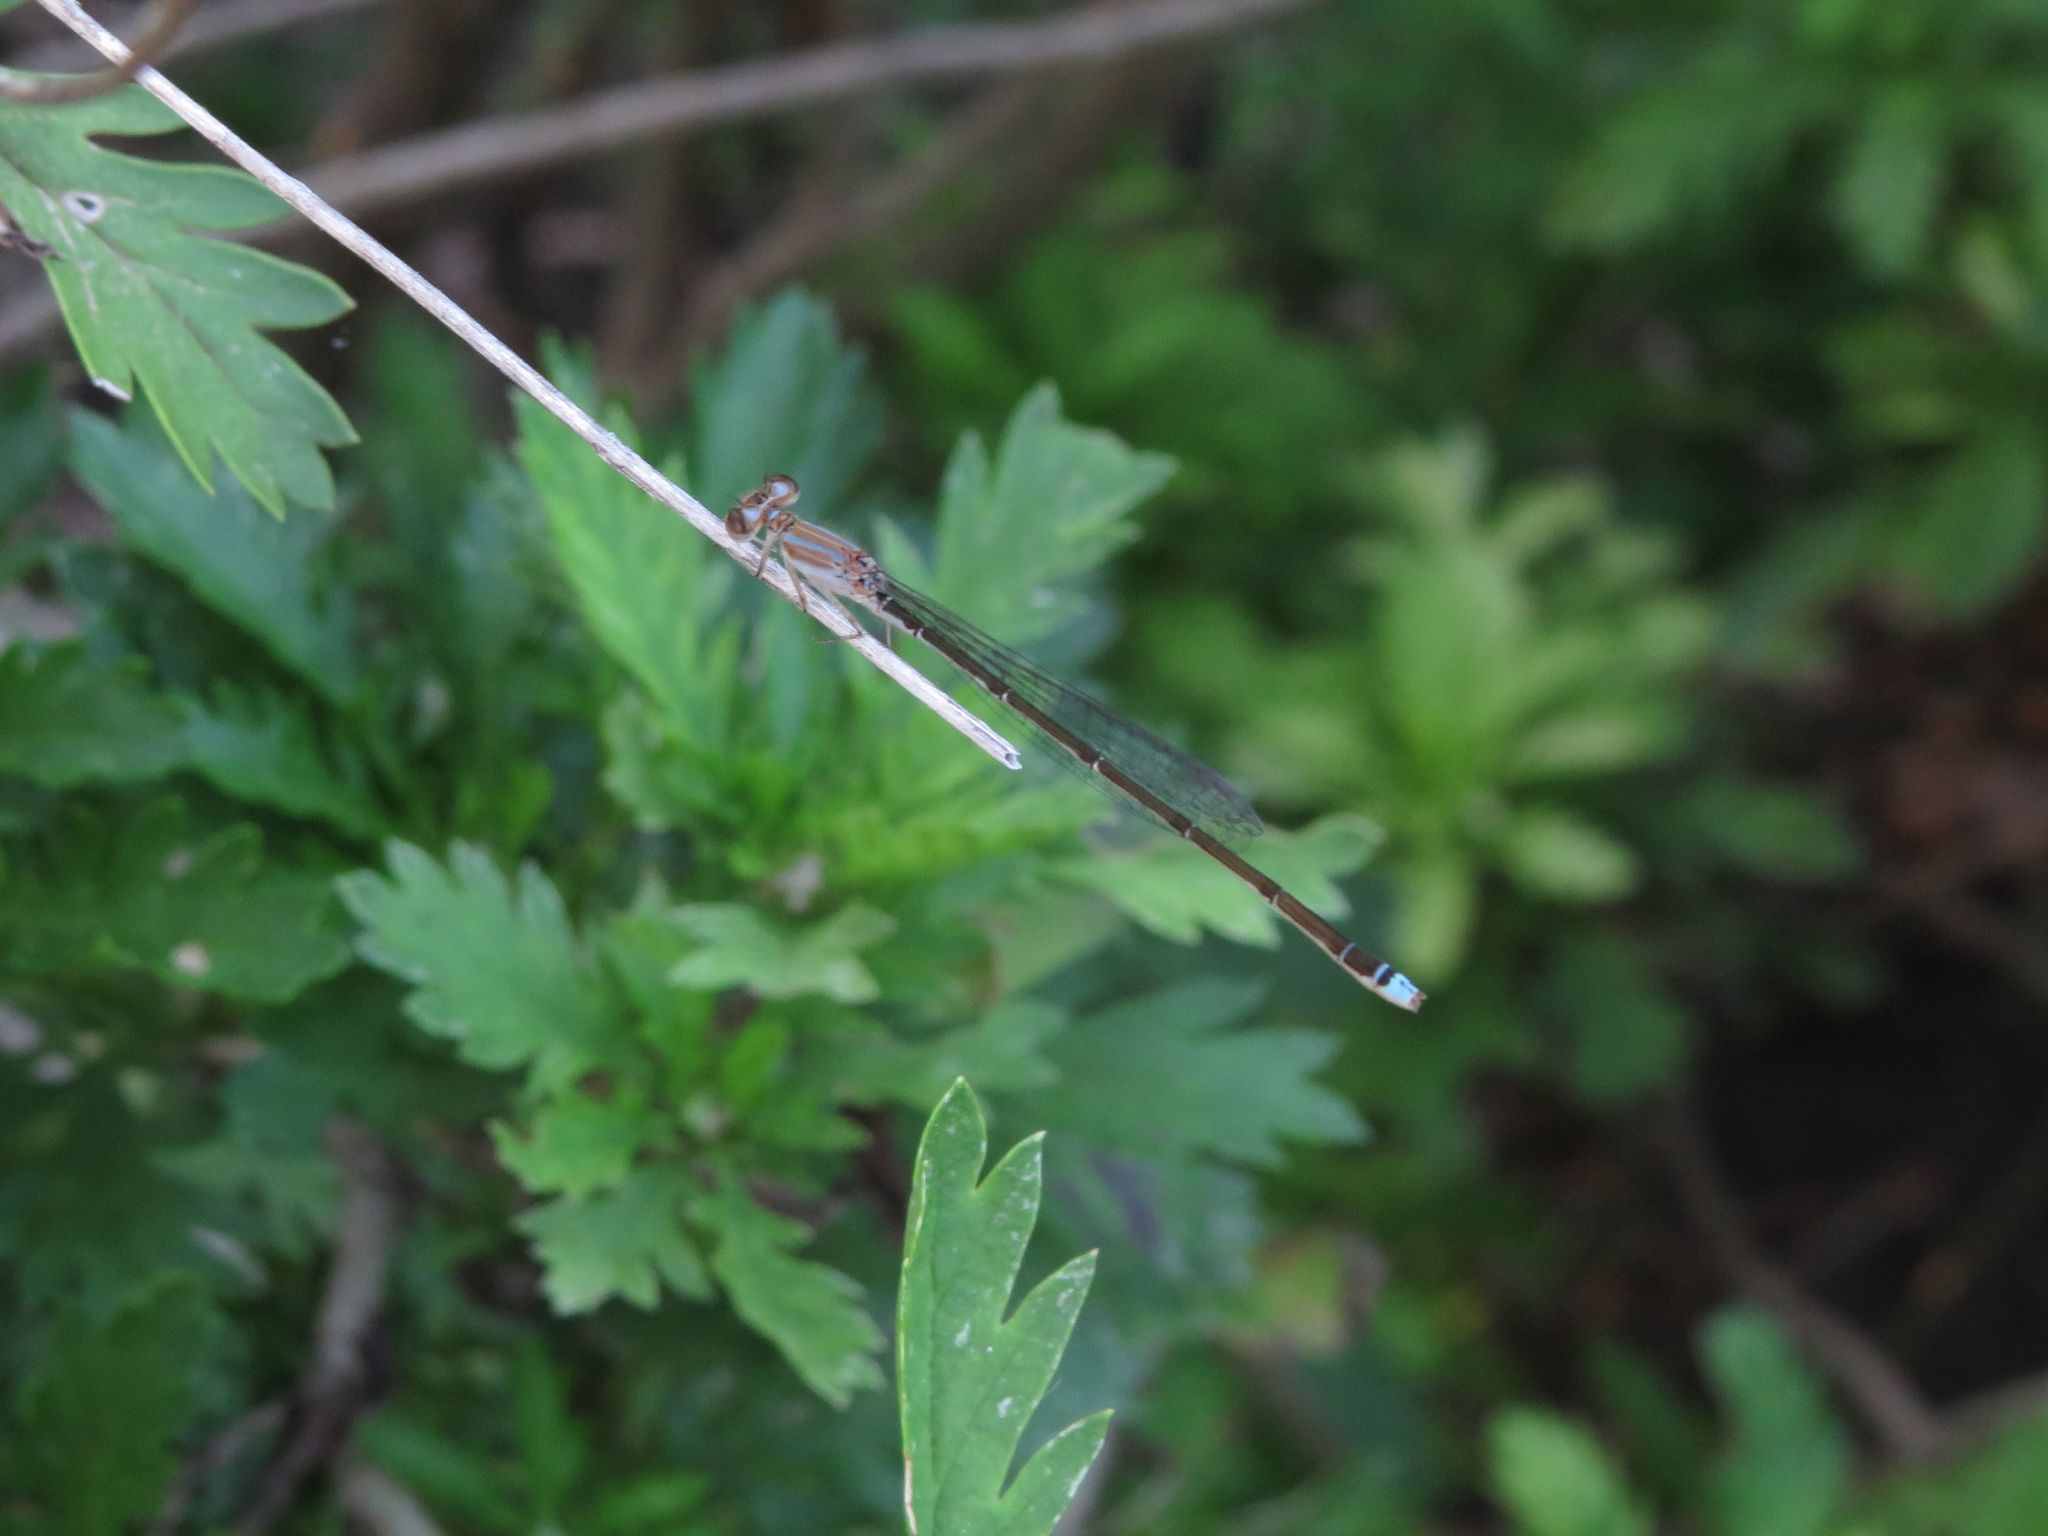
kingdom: Animalia
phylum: Arthropoda
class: Insecta
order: Odonata
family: Coenagrionidae
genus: Argentagrion
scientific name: Argentagrion ambiguum
